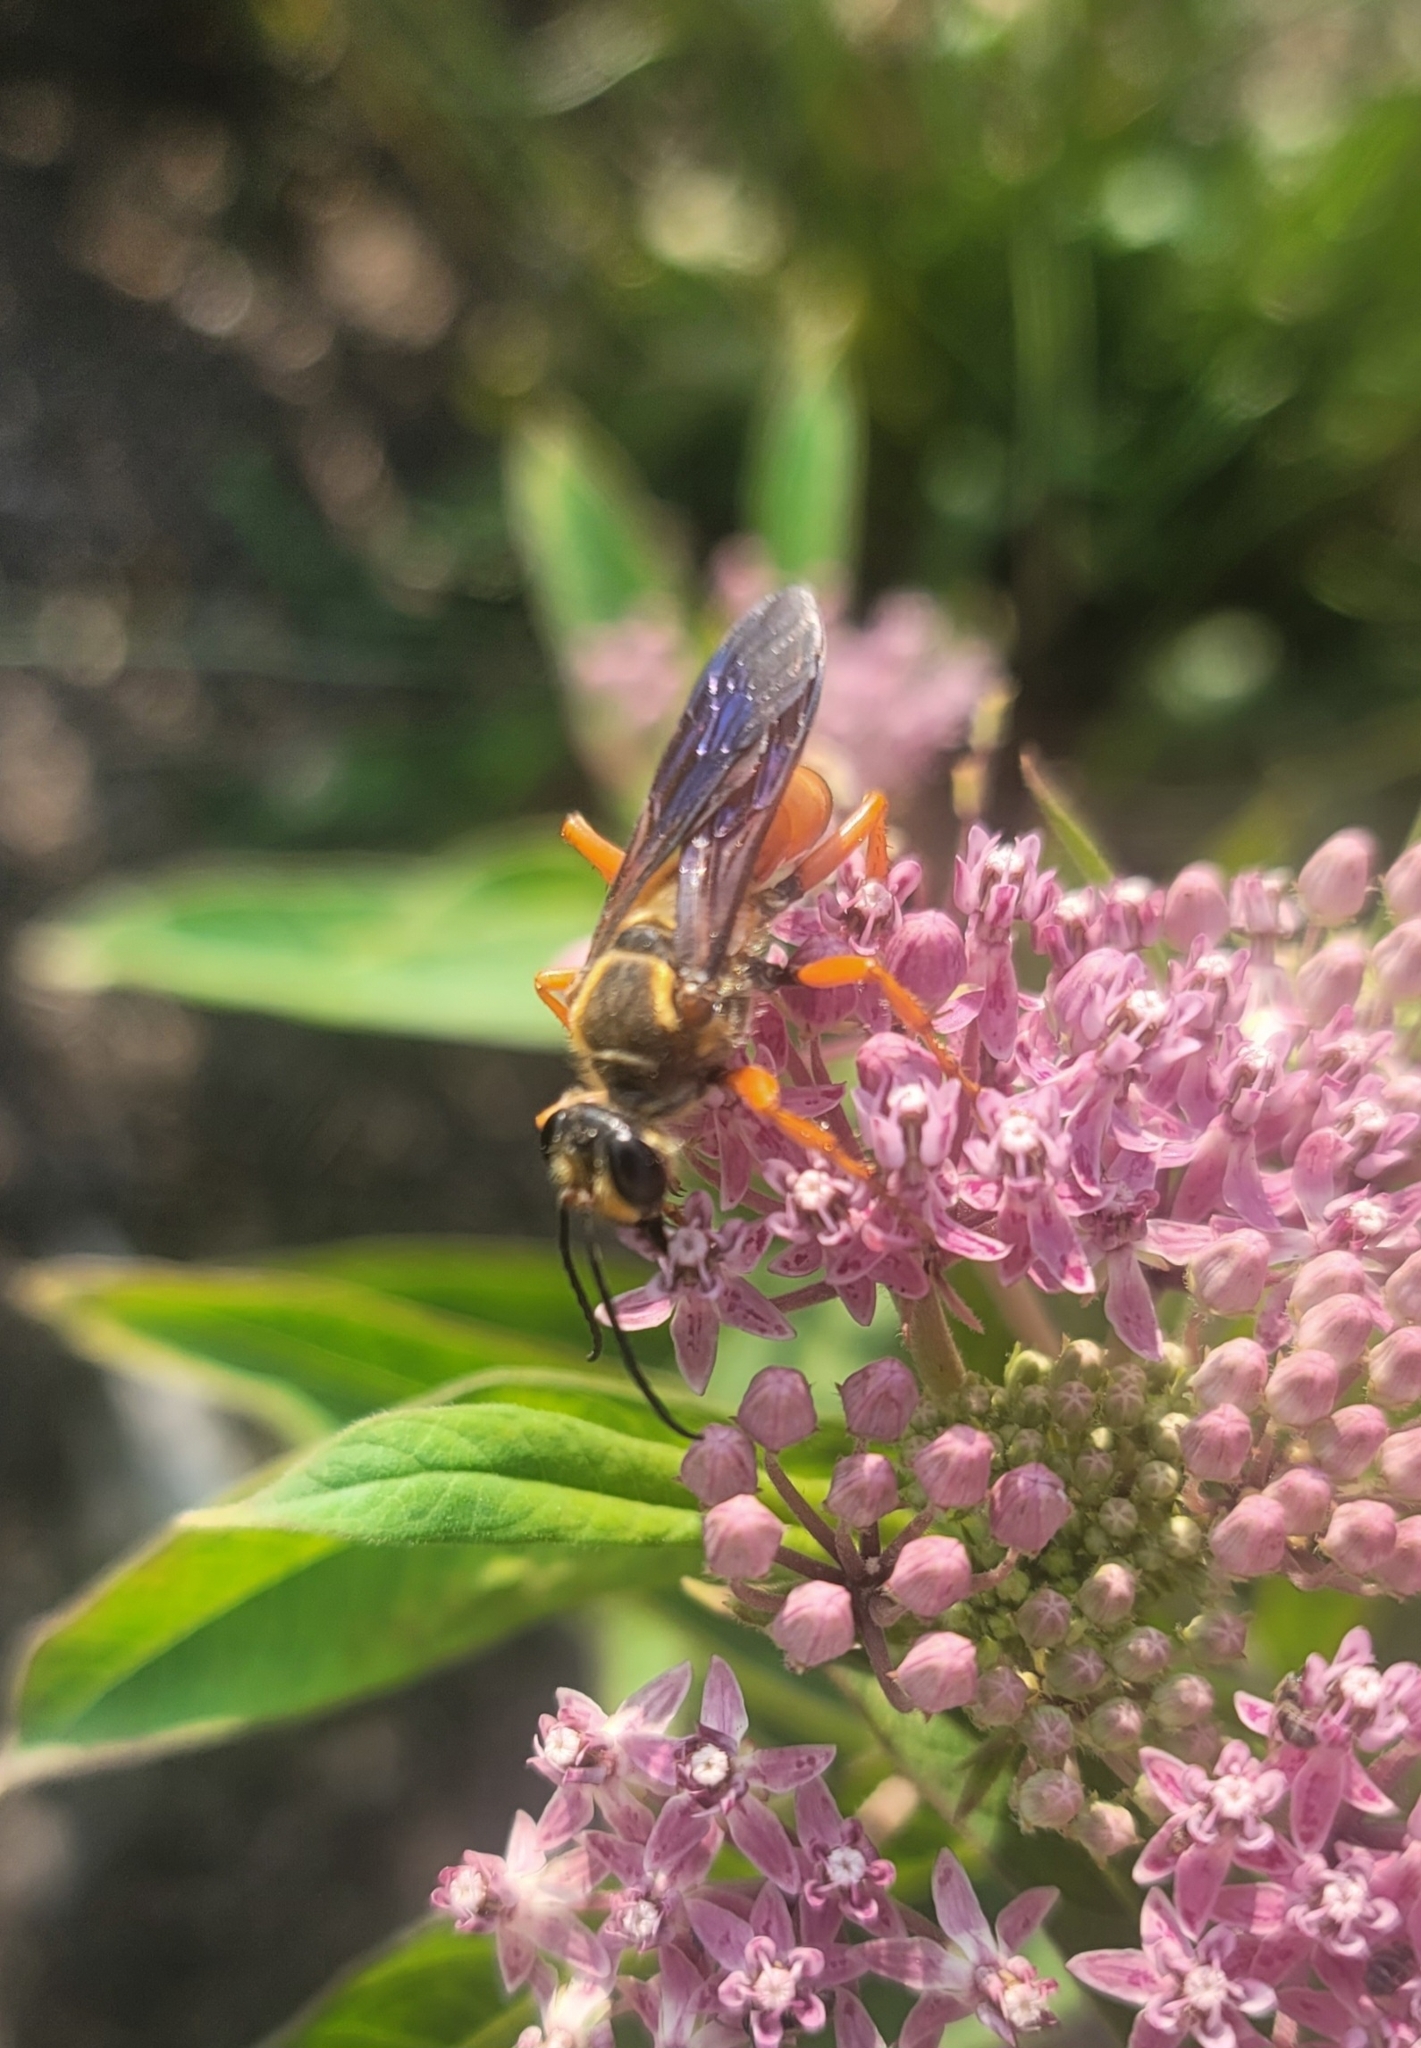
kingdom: Animalia
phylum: Arthropoda
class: Insecta
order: Hymenoptera
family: Sphecidae
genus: Sphex
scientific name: Sphex ichneumoneus
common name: Great golden digger wasp
